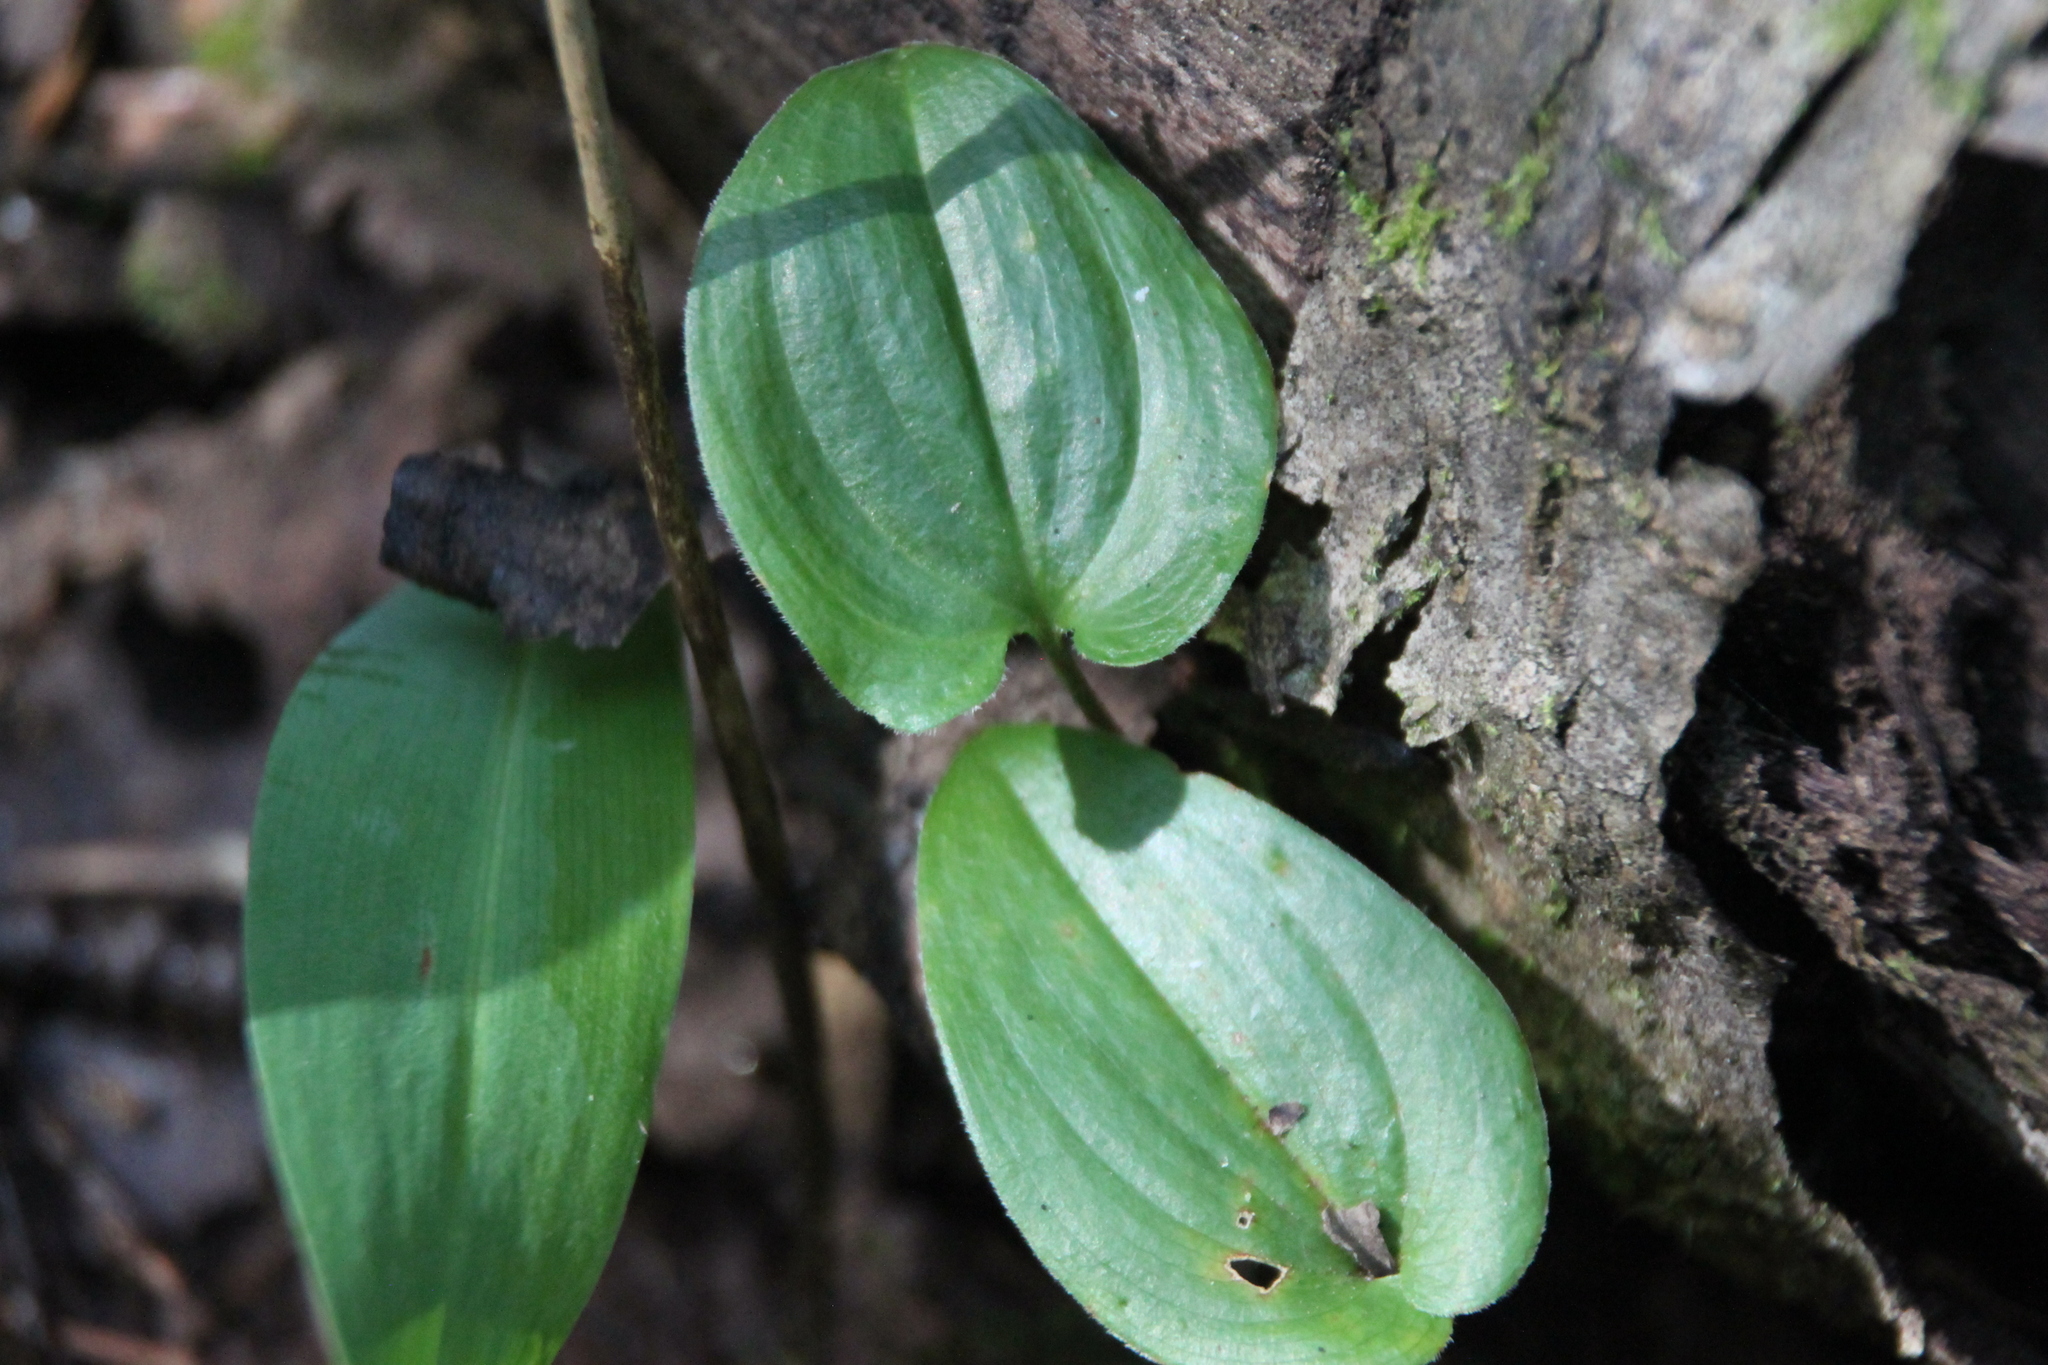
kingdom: Plantae
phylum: Tracheophyta
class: Liliopsida
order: Asparagales
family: Asparagaceae
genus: Maianthemum
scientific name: Maianthemum bifolium
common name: May lily
